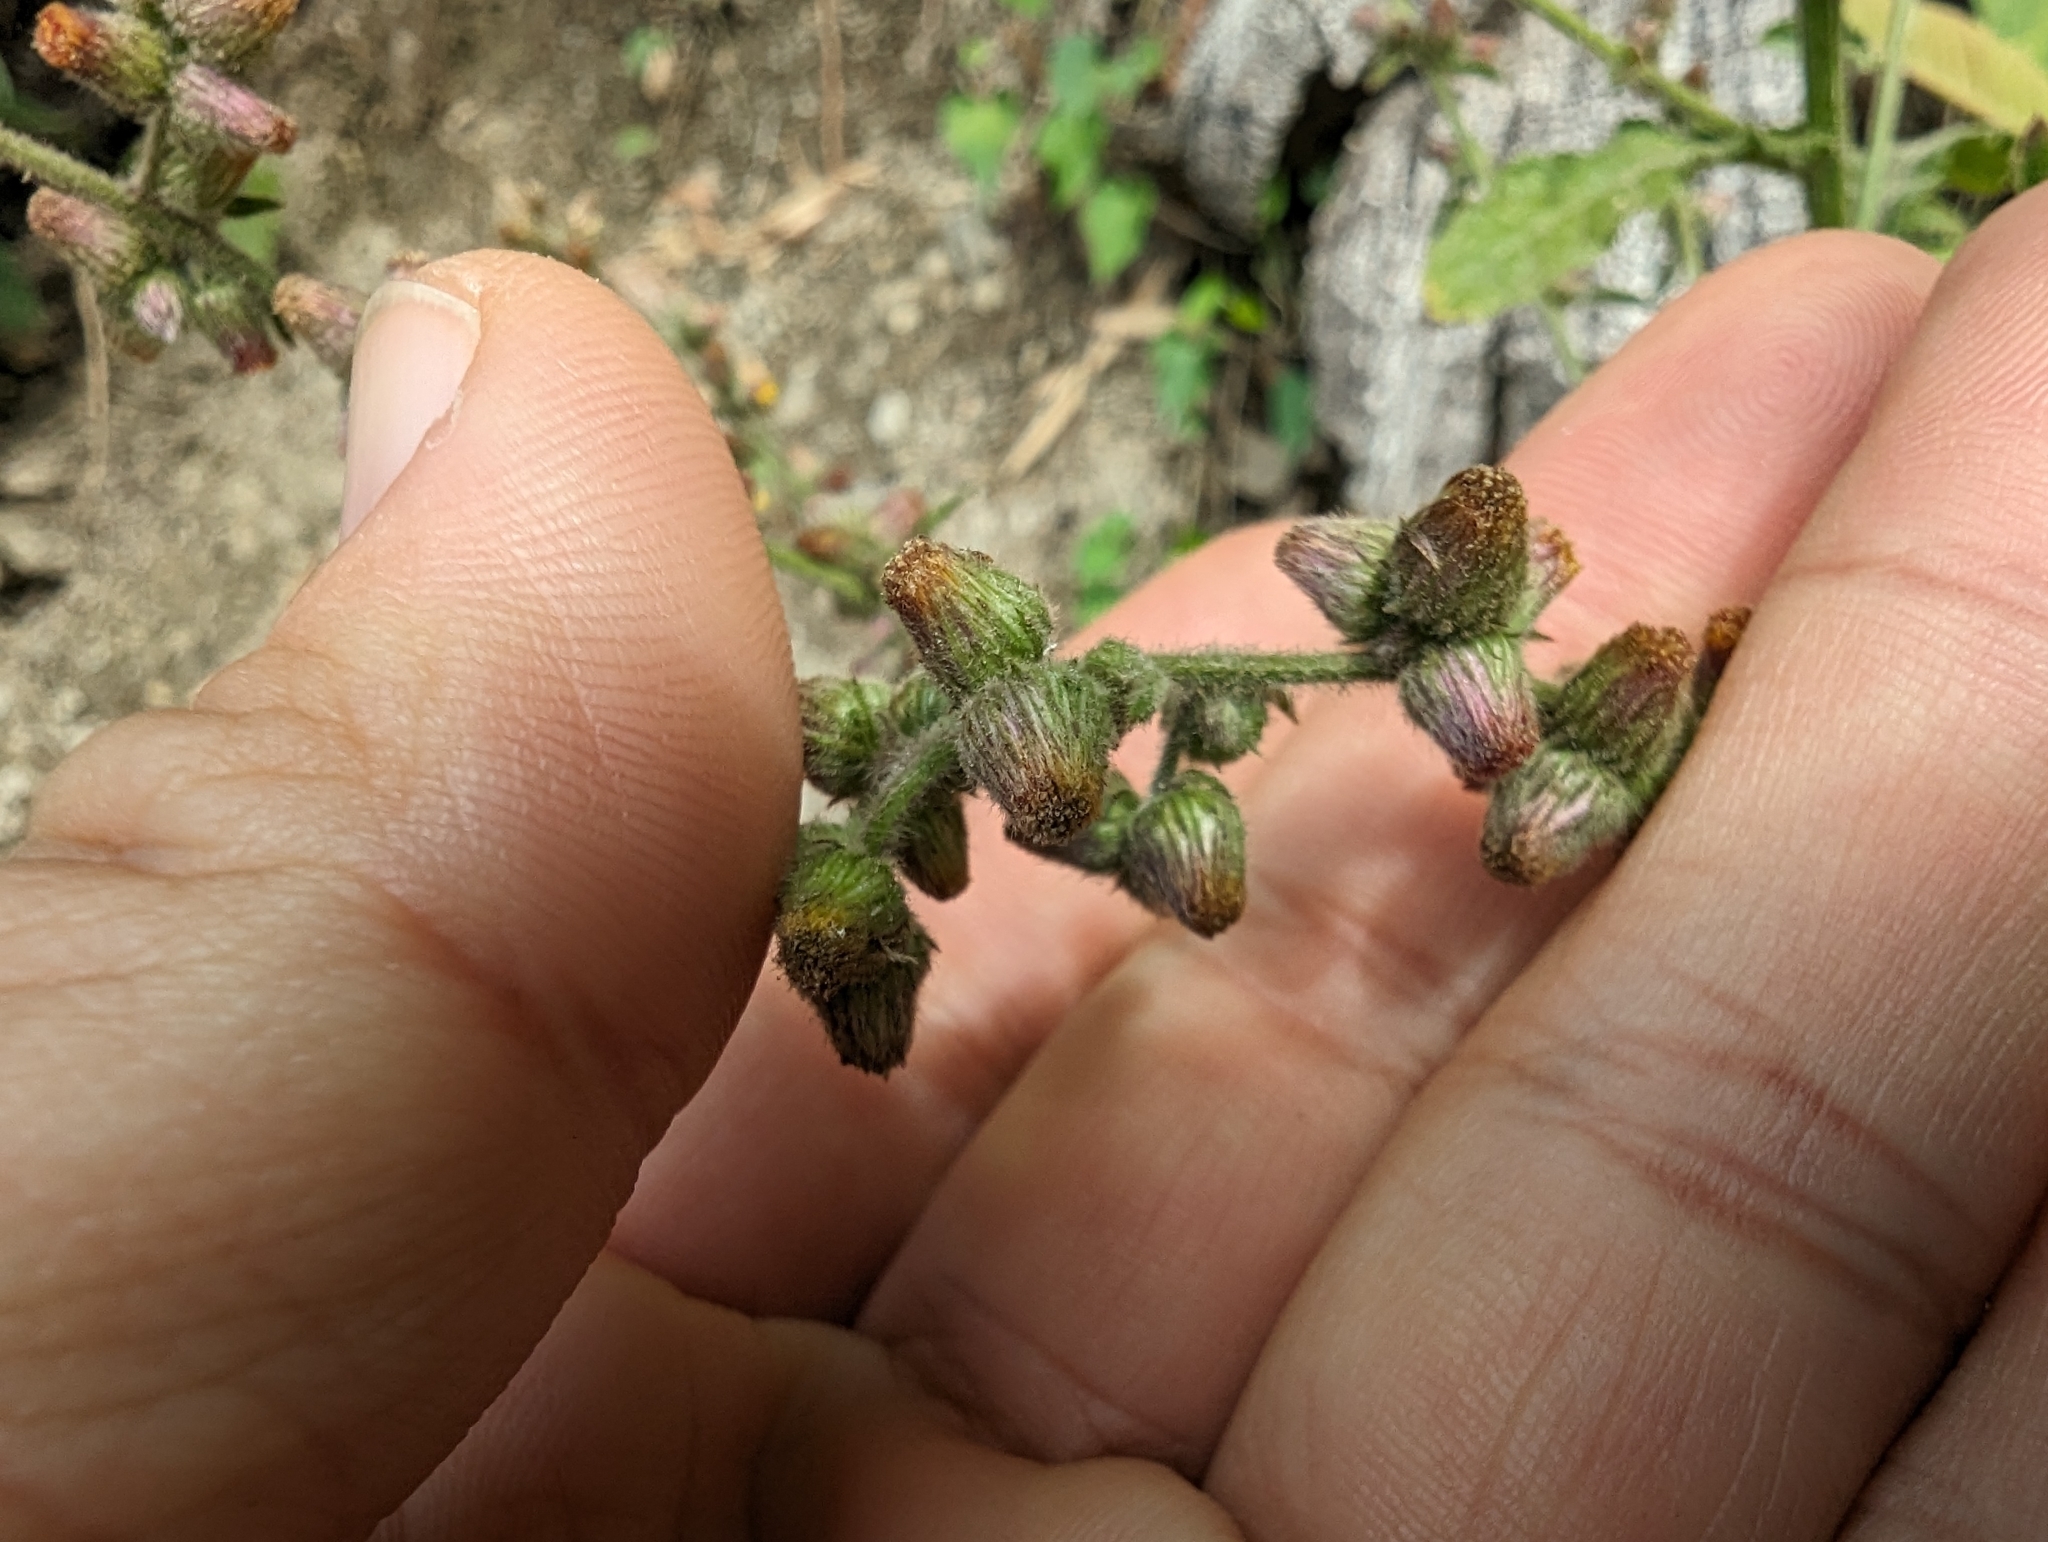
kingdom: Plantae
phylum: Tracheophyta
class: Magnoliopsida
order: Asterales
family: Asteraceae
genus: Blumea
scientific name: Blumea sinuata
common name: Cutleaf false oxtongue
